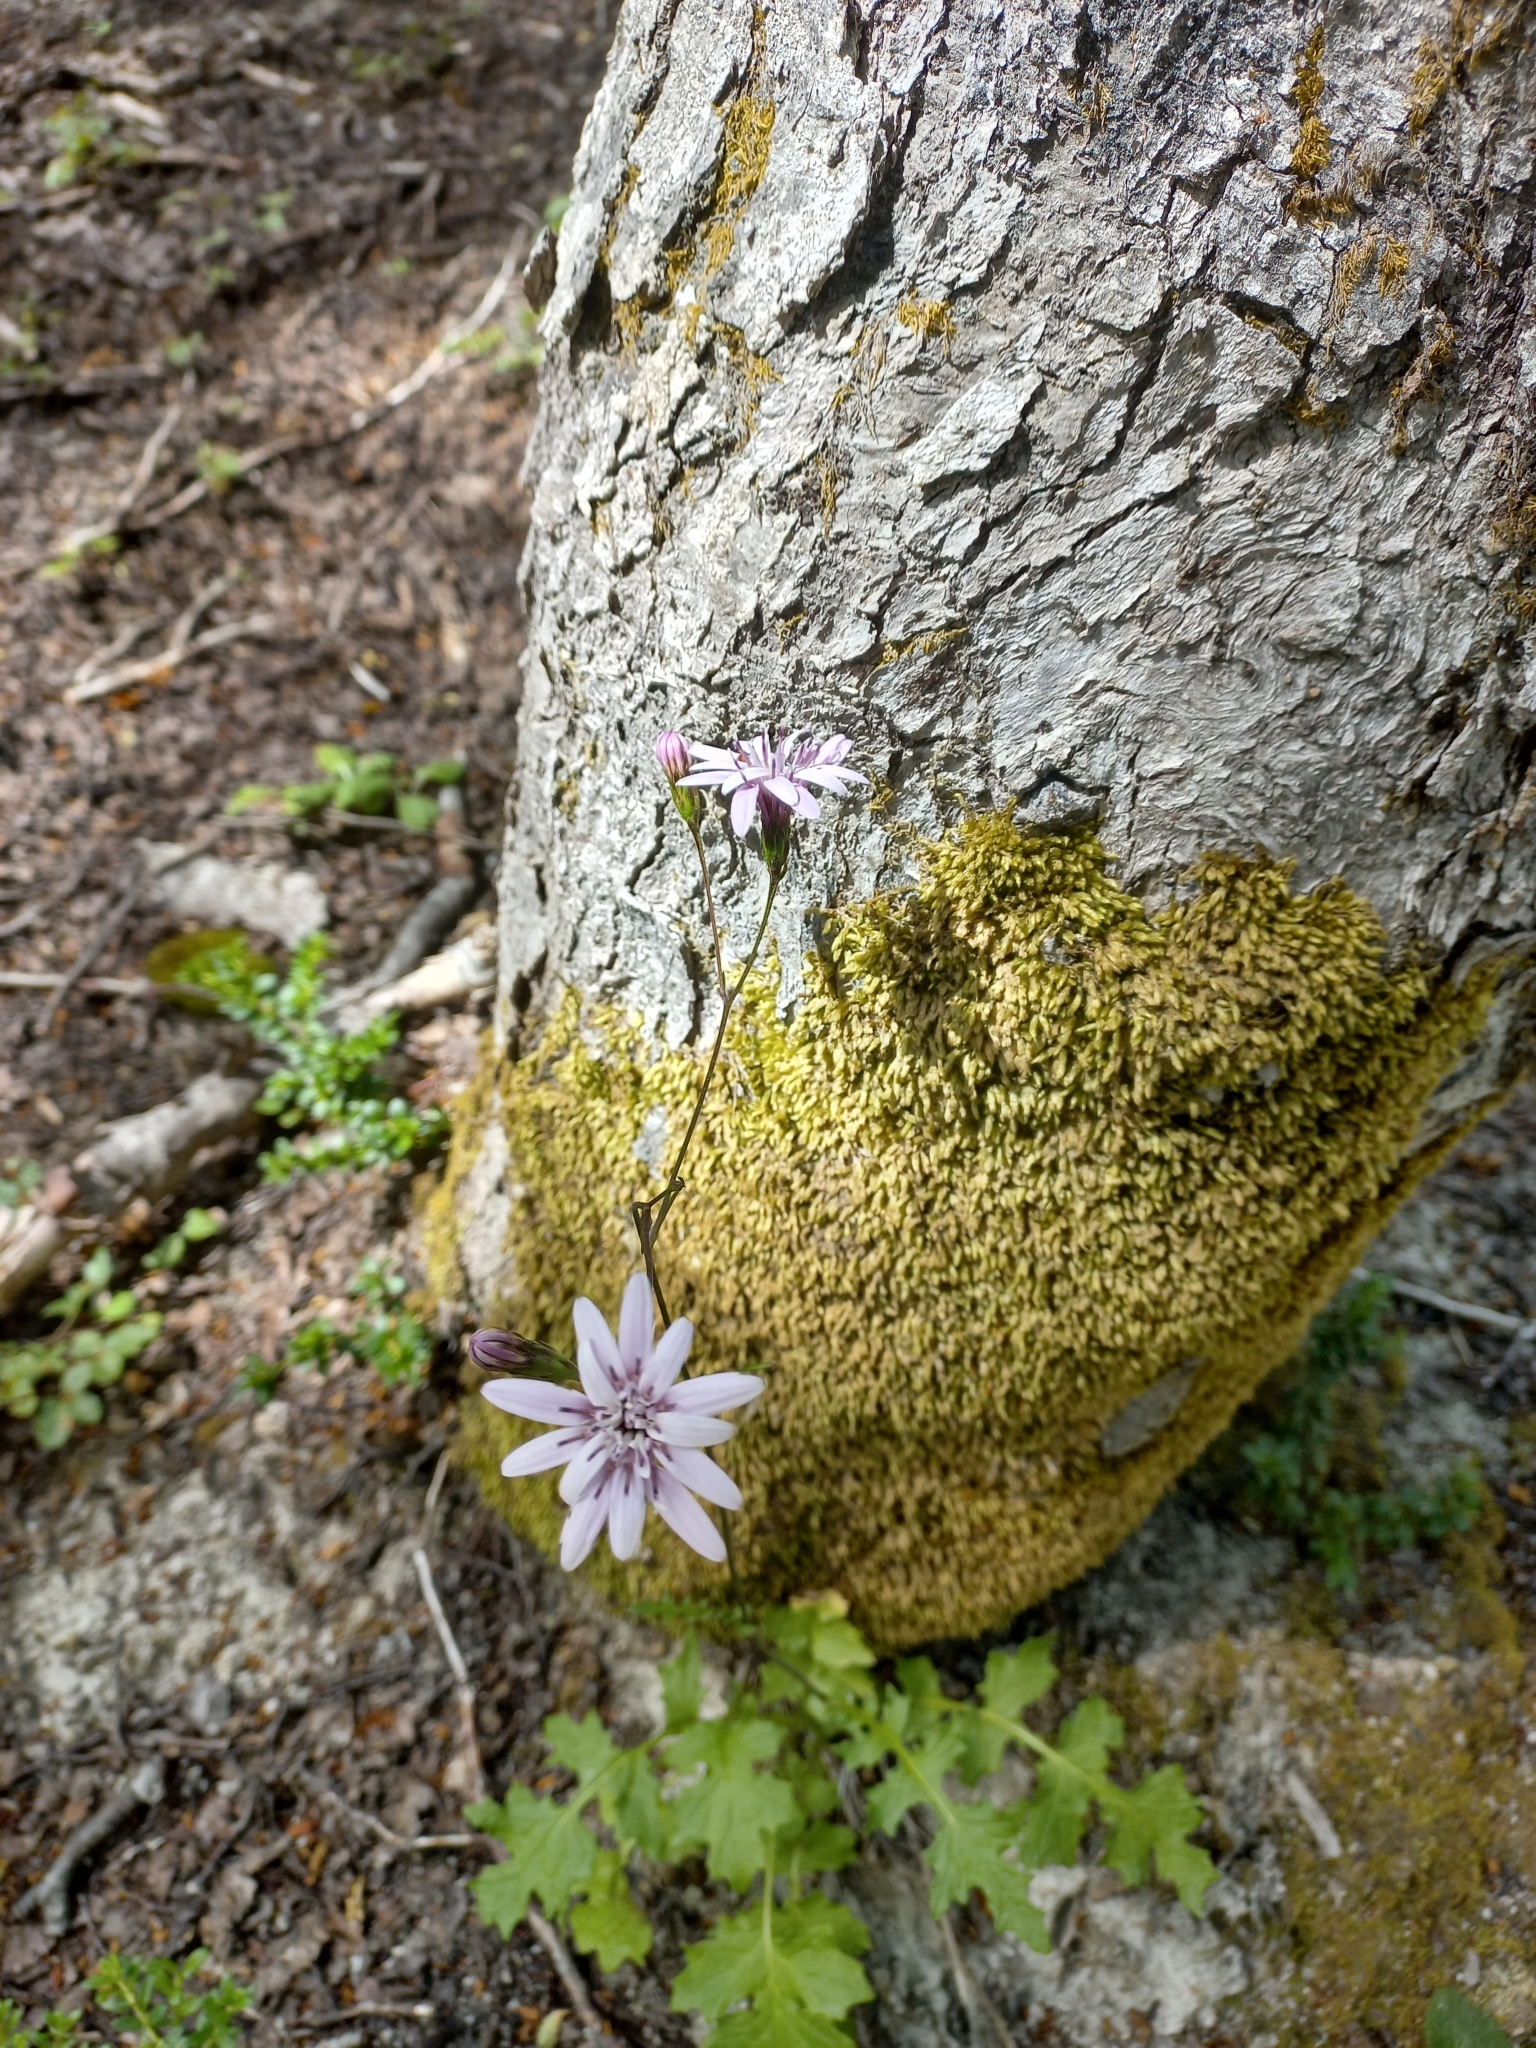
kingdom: Plantae
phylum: Tracheophyta
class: Magnoliopsida
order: Asterales
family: Asteraceae
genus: Perezia
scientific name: Perezia prenanthoides
